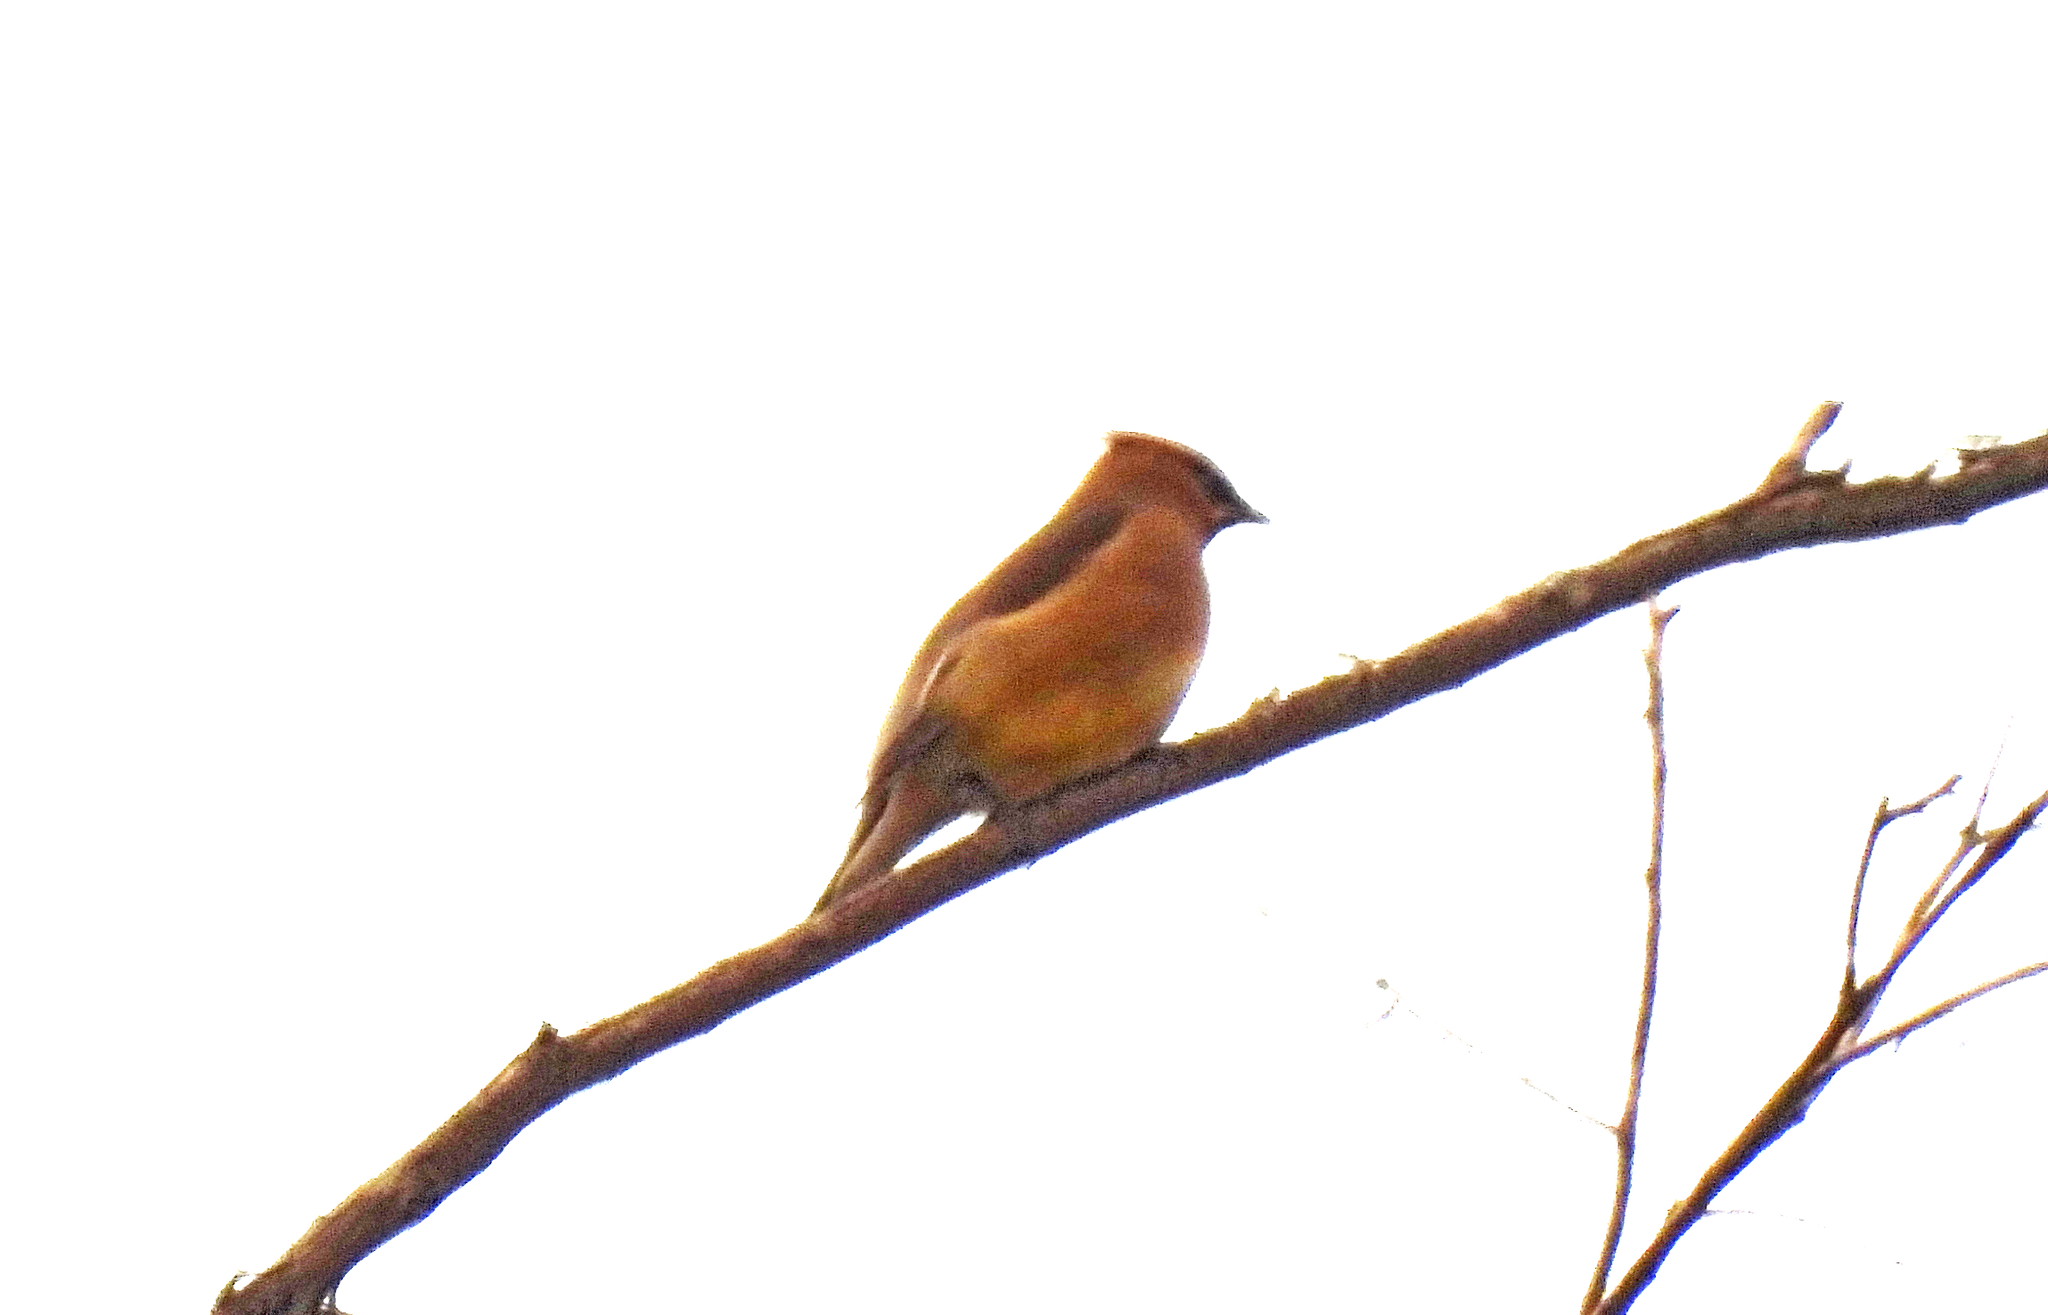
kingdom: Animalia
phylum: Chordata
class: Aves
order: Passeriformes
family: Bombycillidae
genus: Bombycilla
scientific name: Bombycilla cedrorum
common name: Cedar waxwing
